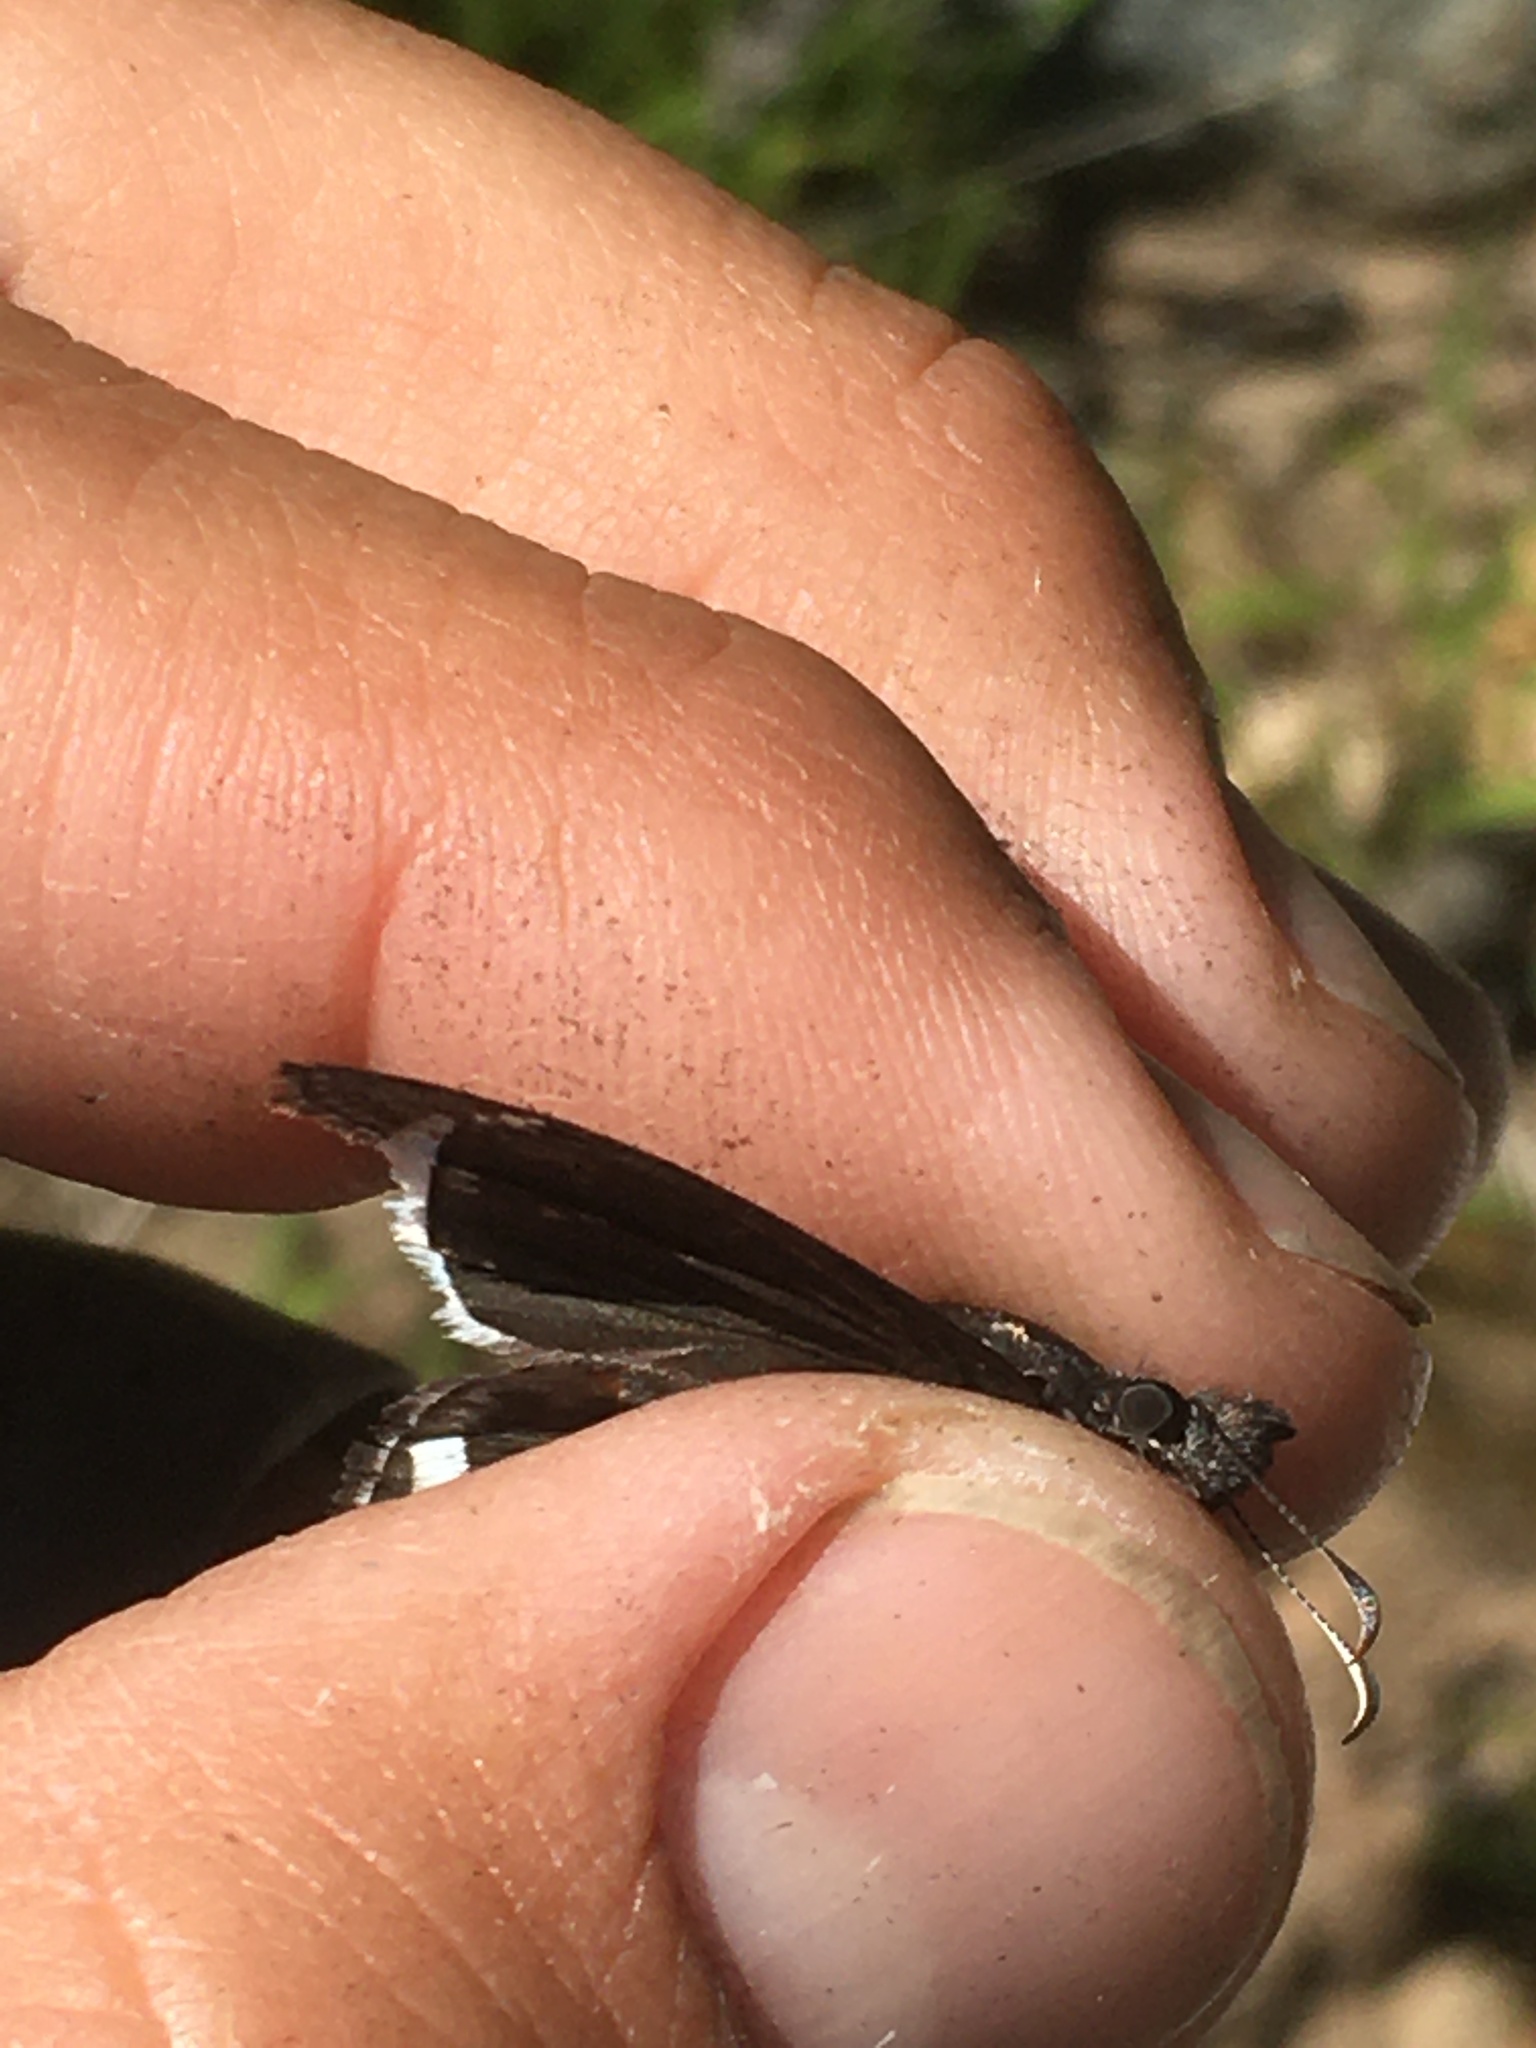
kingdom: Animalia
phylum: Arthropoda
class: Insecta
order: Lepidoptera
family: Hesperiidae
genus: Erynnis
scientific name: Erynnis funeralis
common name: Funereal duskywing
